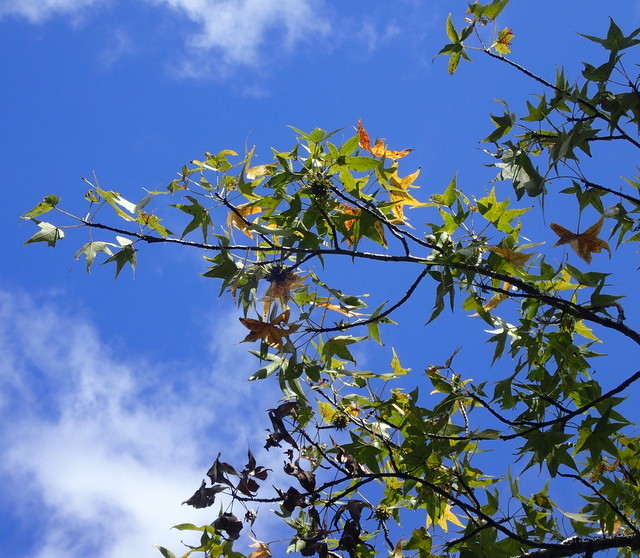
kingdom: Plantae
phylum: Tracheophyta
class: Magnoliopsida
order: Saxifragales
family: Altingiaceae
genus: Liquidambar
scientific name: Liquidambar styraciflua
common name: Sweet gum
